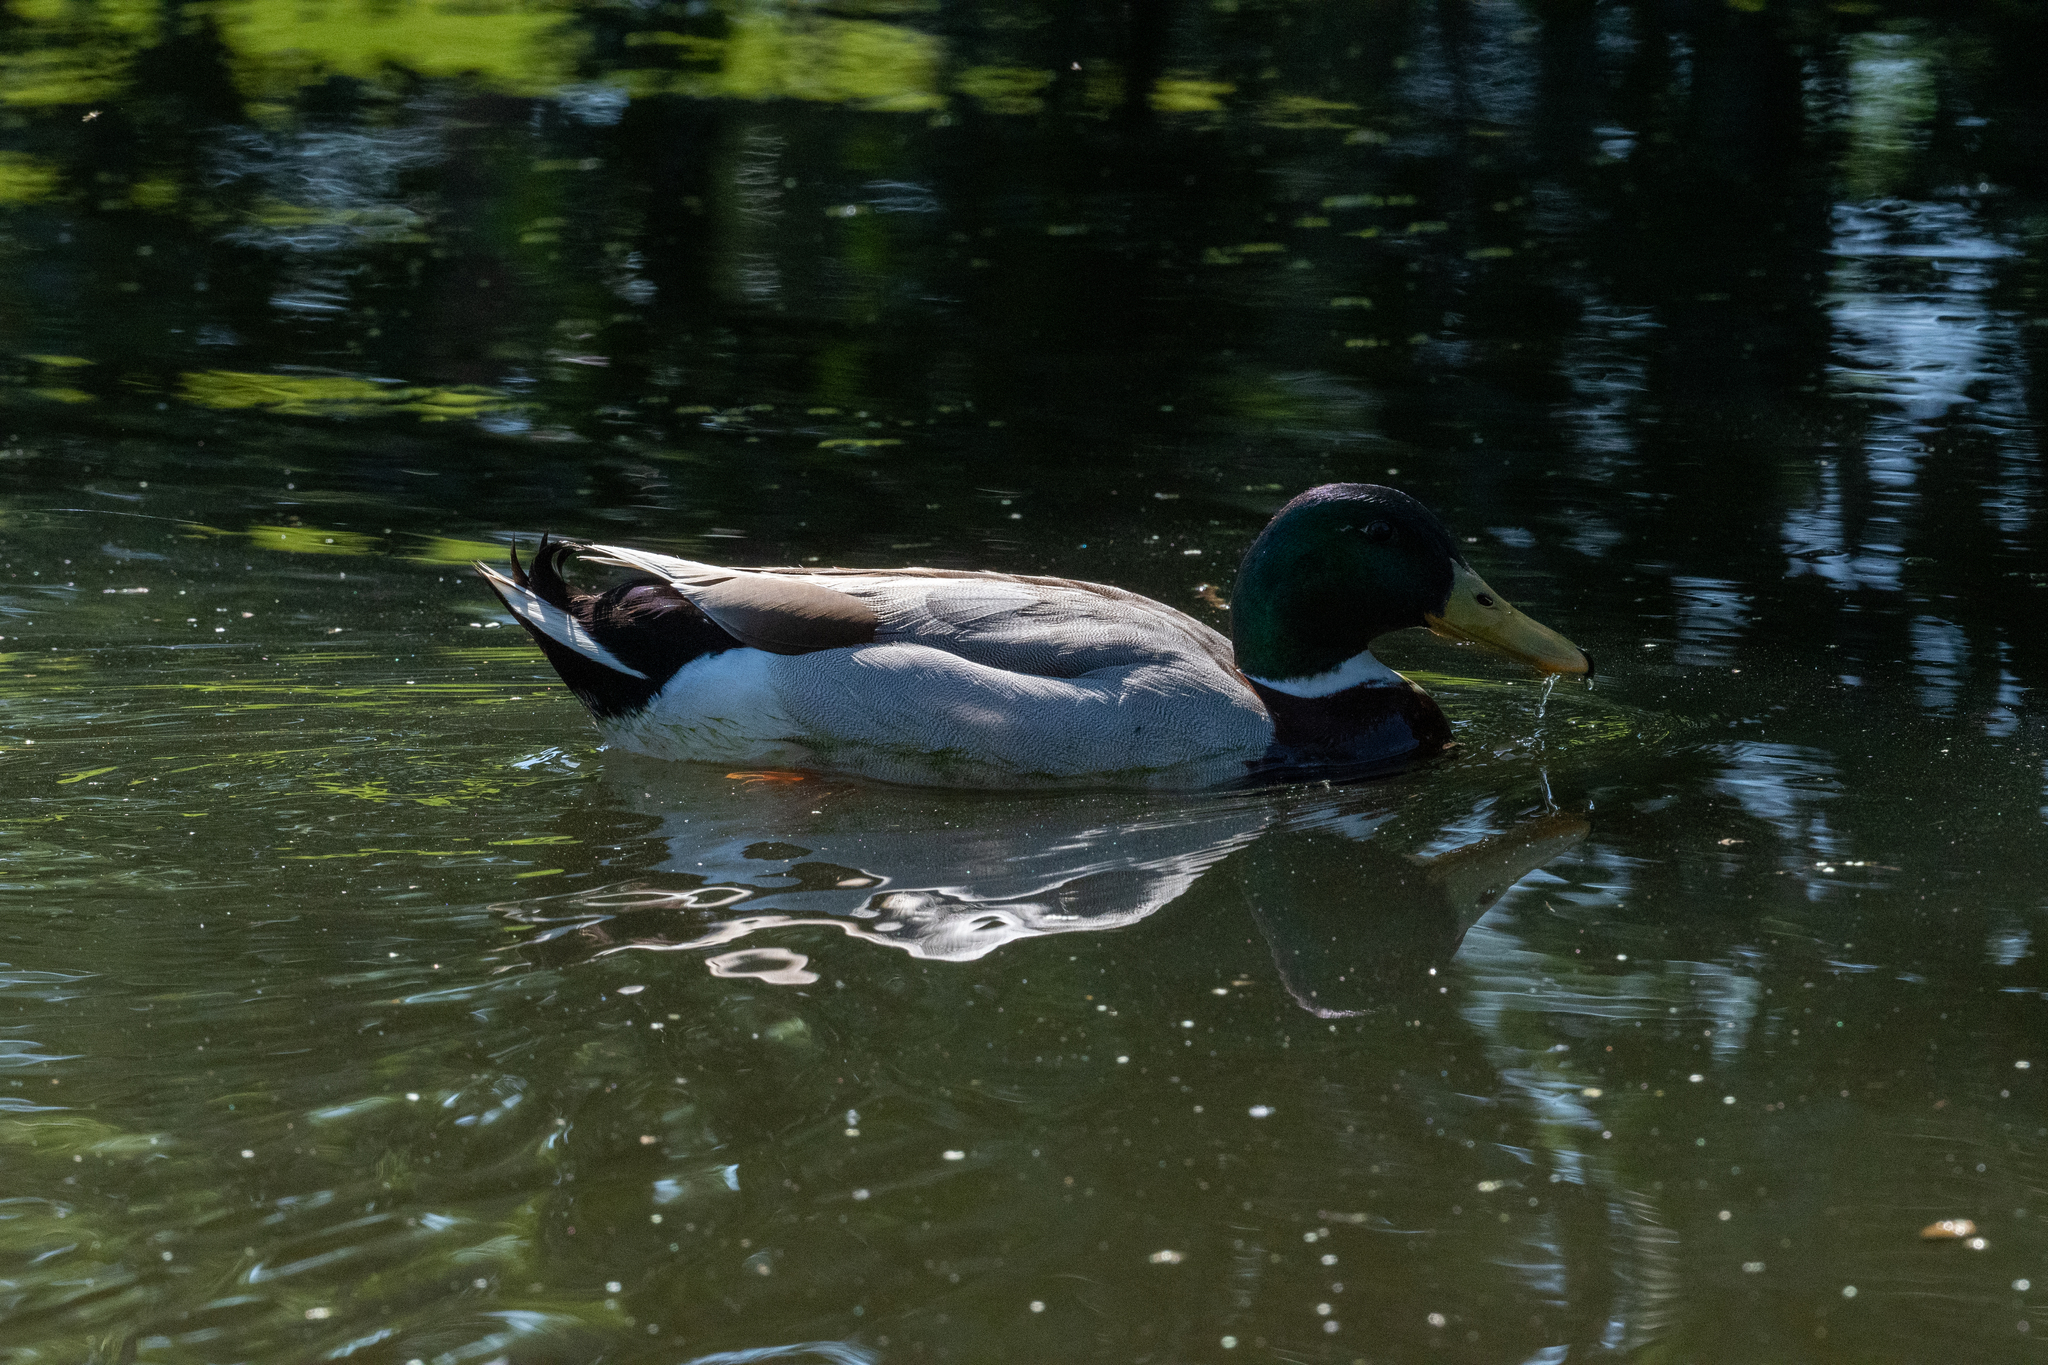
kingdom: Animalia
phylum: Chordata
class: Aves
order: Anseriformes
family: Anatidae
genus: Anas
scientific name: Anas platyrhynchos
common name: Mallard
